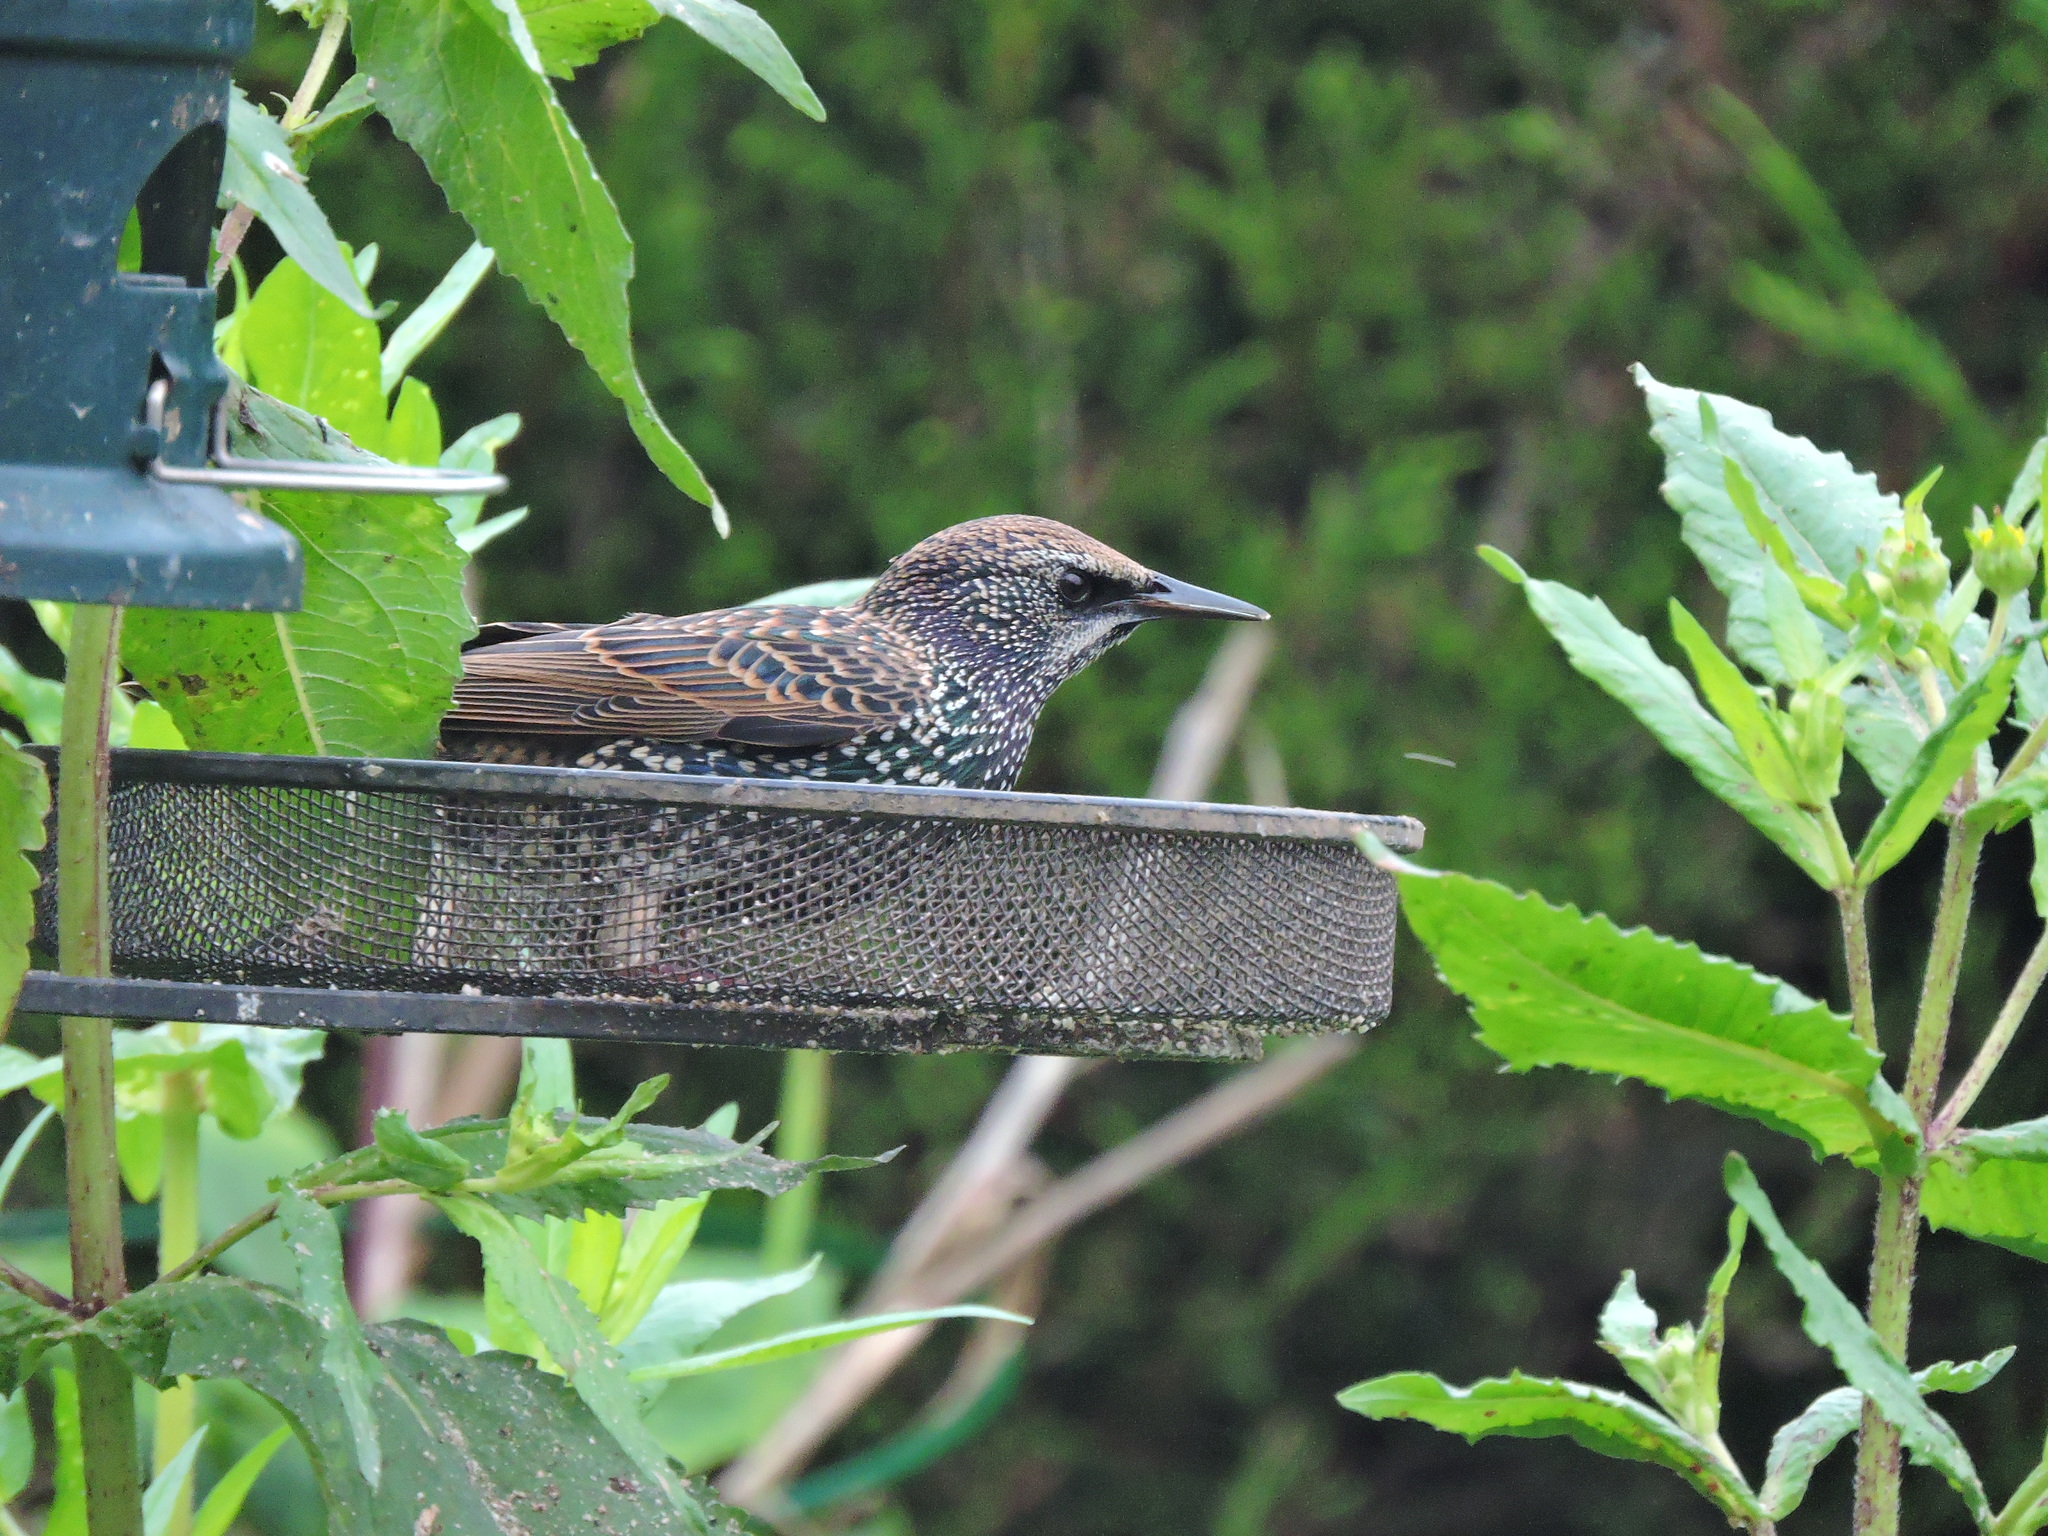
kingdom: Animalia
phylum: Chordata
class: Aves
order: Passeriformes
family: Sturnidae
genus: Sturnus
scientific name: Sturnus vulgaris
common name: Common starling
